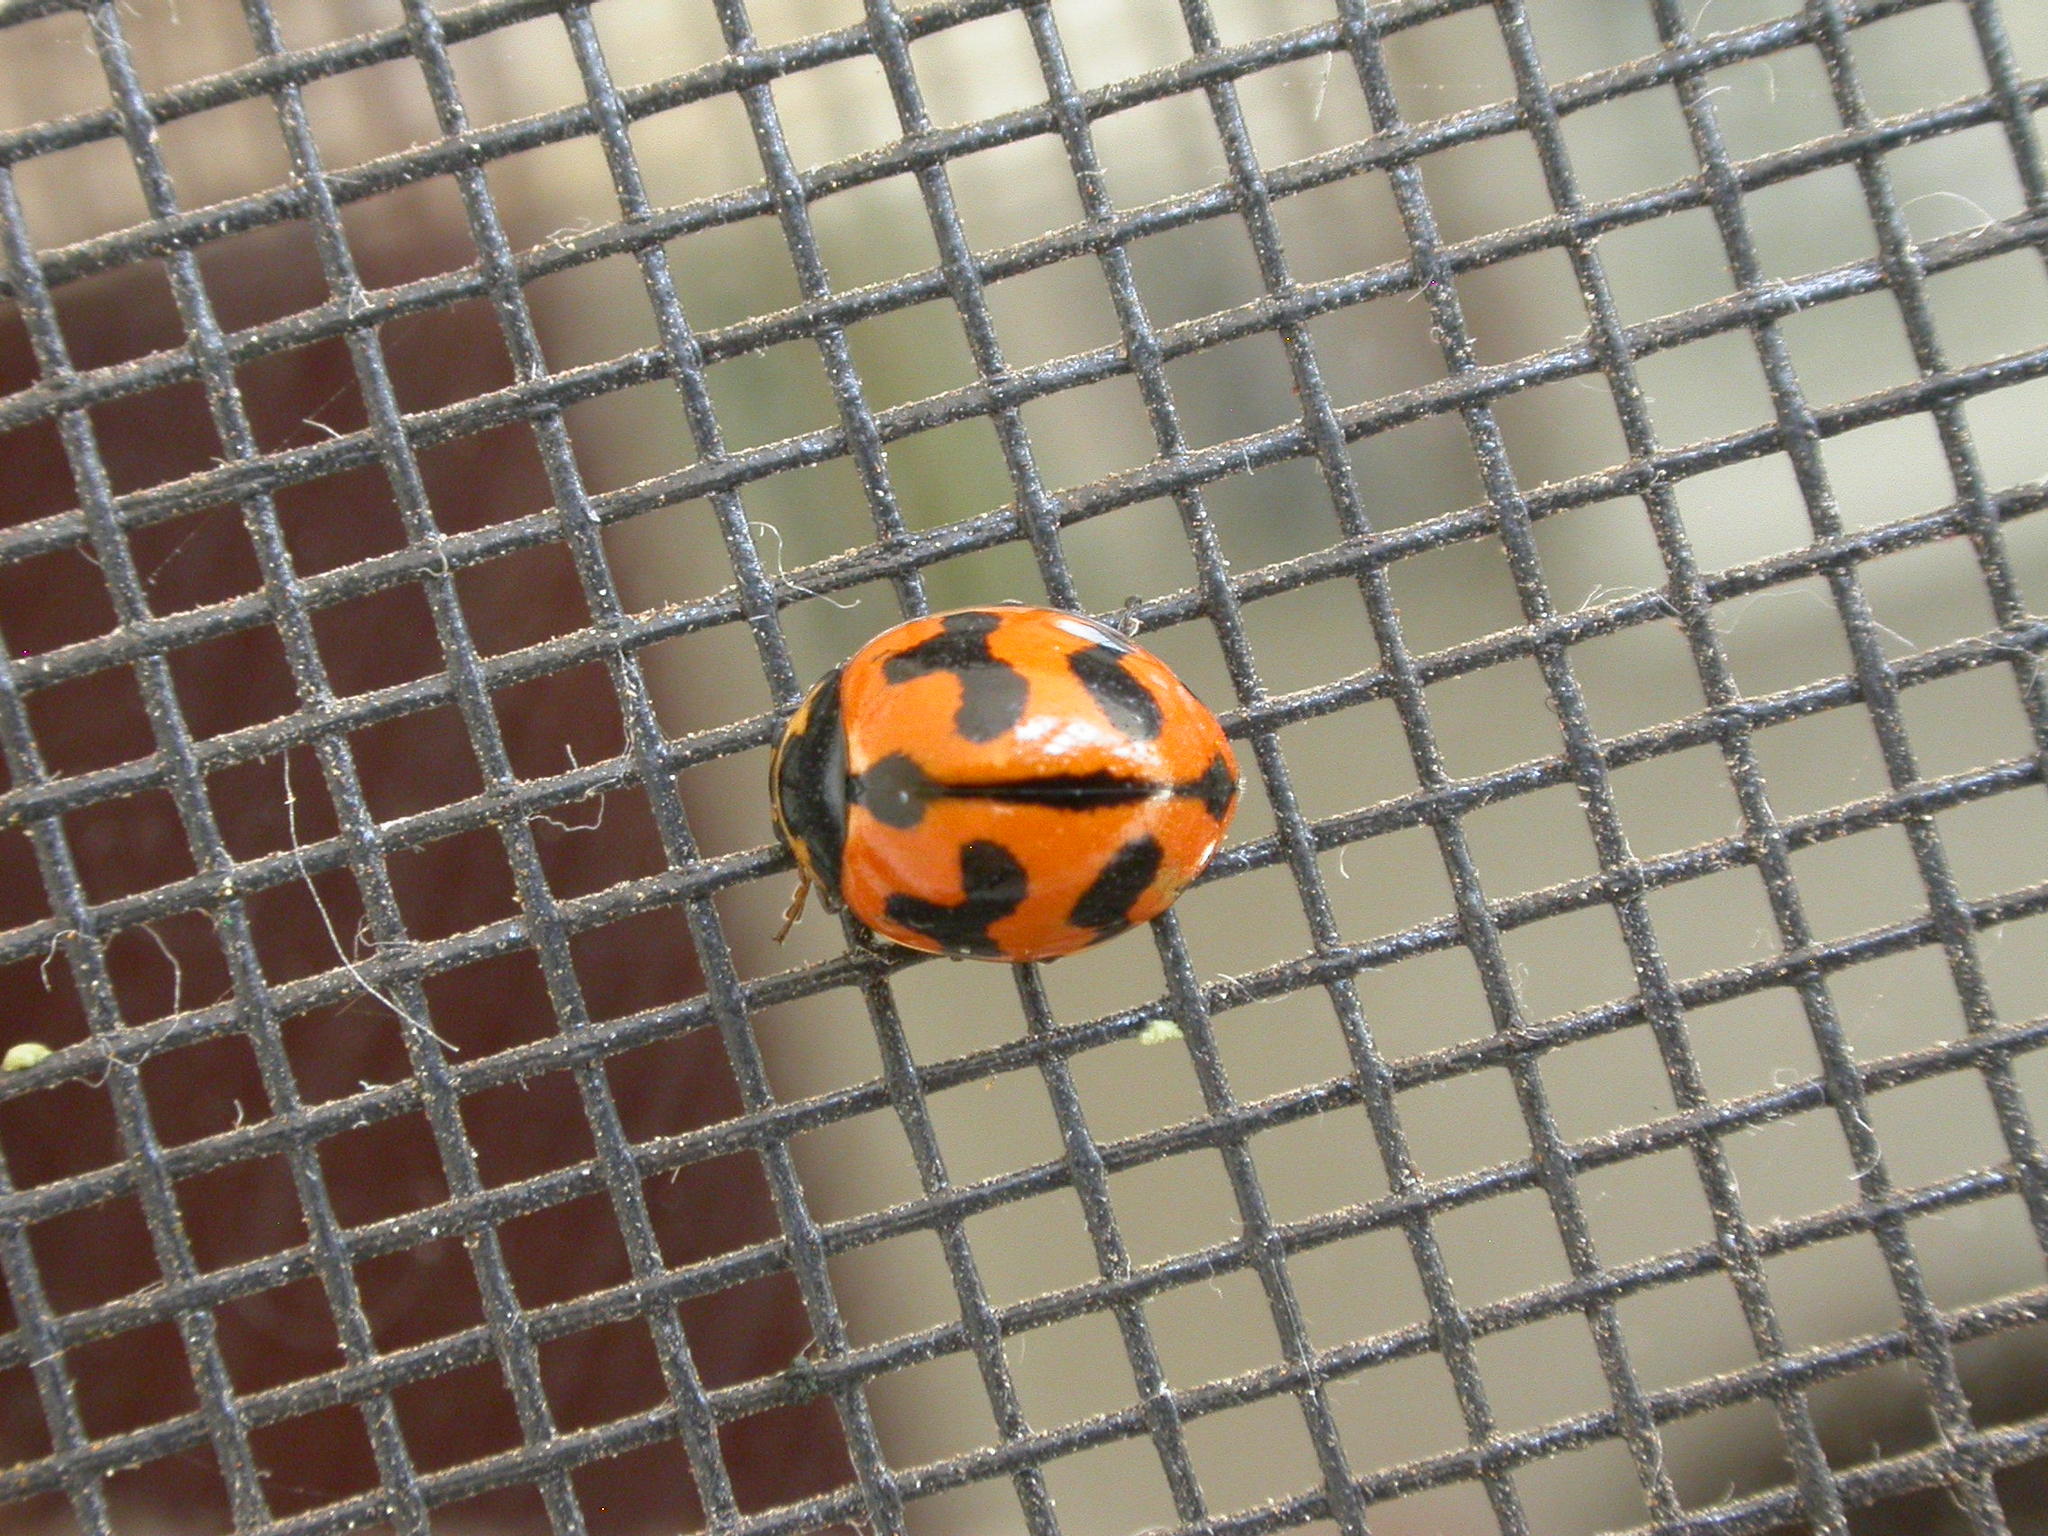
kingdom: Animalia
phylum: Arthropoda
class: Insecta
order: Coleoptera
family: Coccinellidae
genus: Coccinella
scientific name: Coccinella transversalis
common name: Transverse lady beetle
